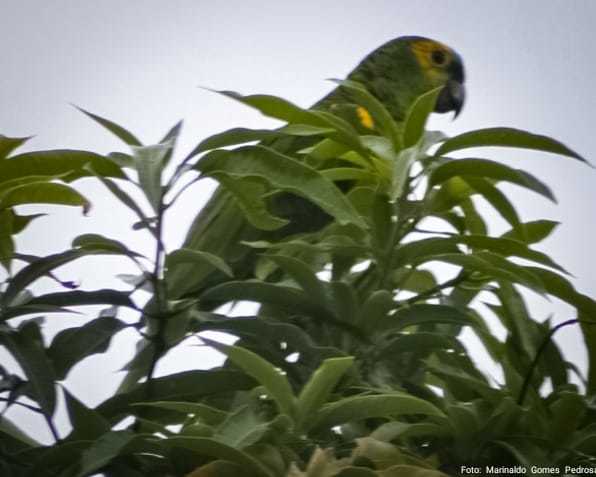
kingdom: Animalia
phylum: Chordata
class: Aves
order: Psittaciformes
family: Psittacidae
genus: Amazona
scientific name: Amazona aestiva
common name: Turquoise-fronted amazon
